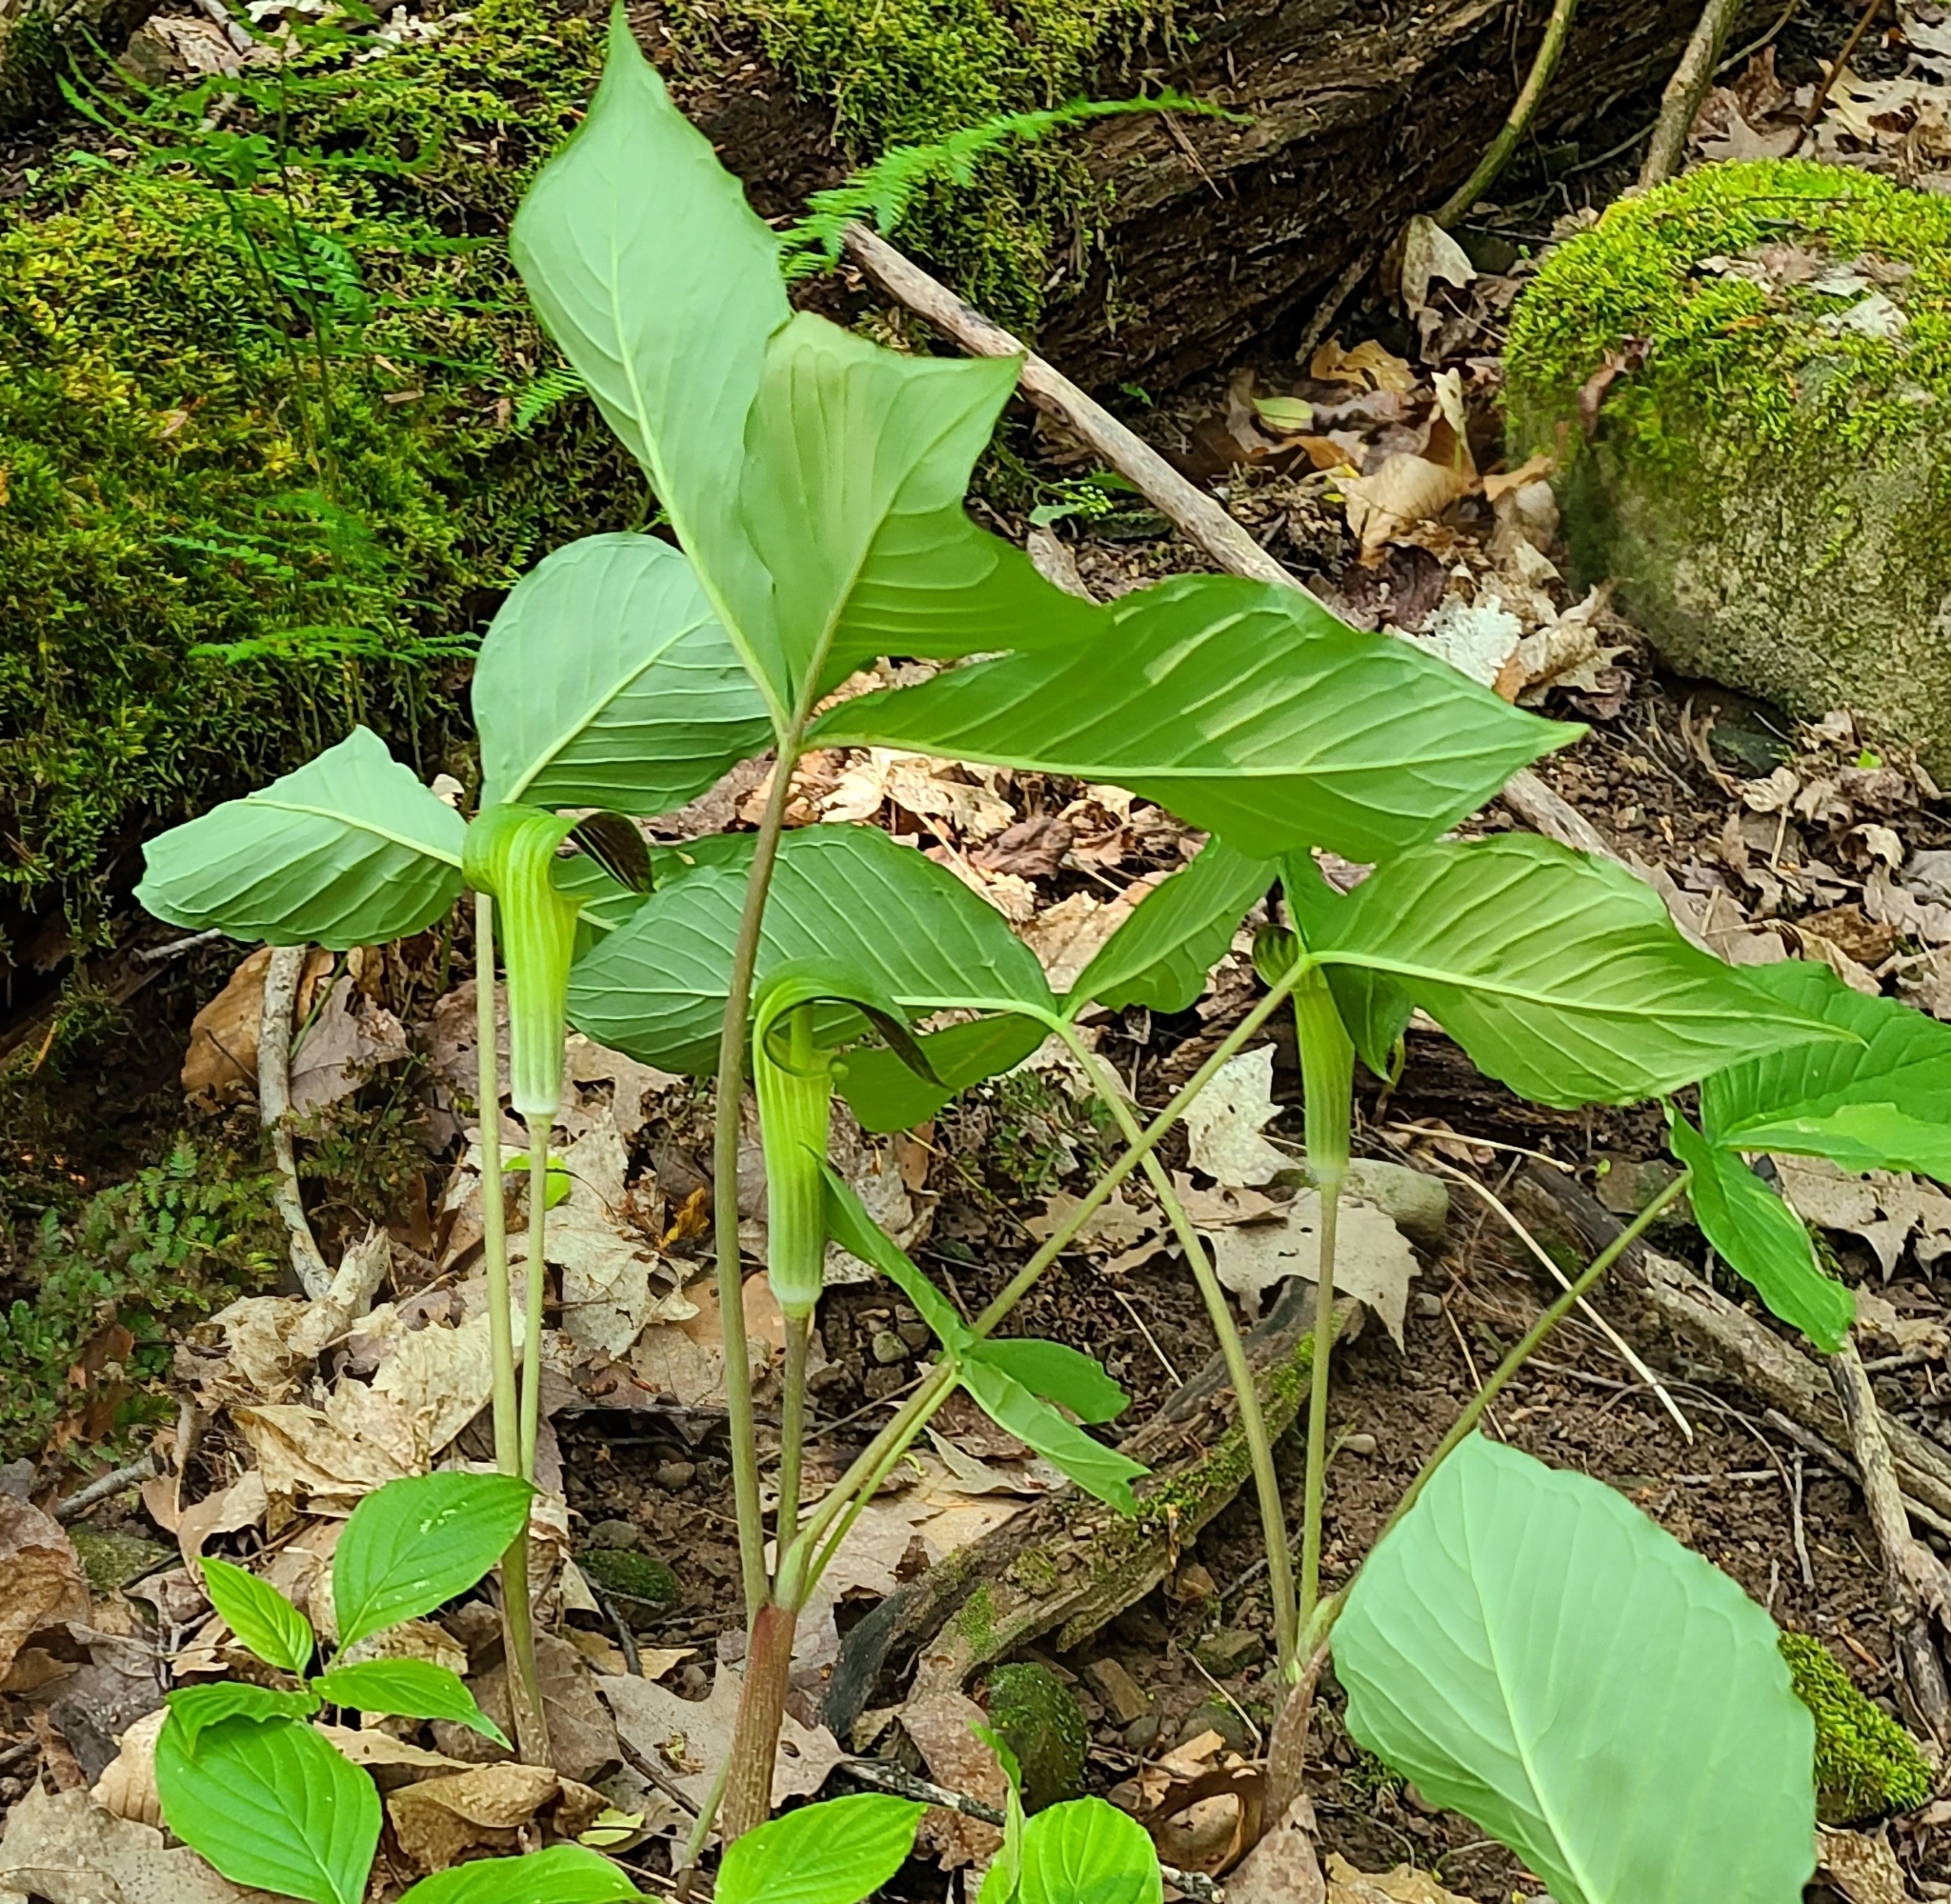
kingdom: Plantae
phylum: Tracheophyta
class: Liliopsida
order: Alismatales
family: Araceae
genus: Arisaema
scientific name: Arisaema triphyllum
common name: Jack-in-the-pulpit
